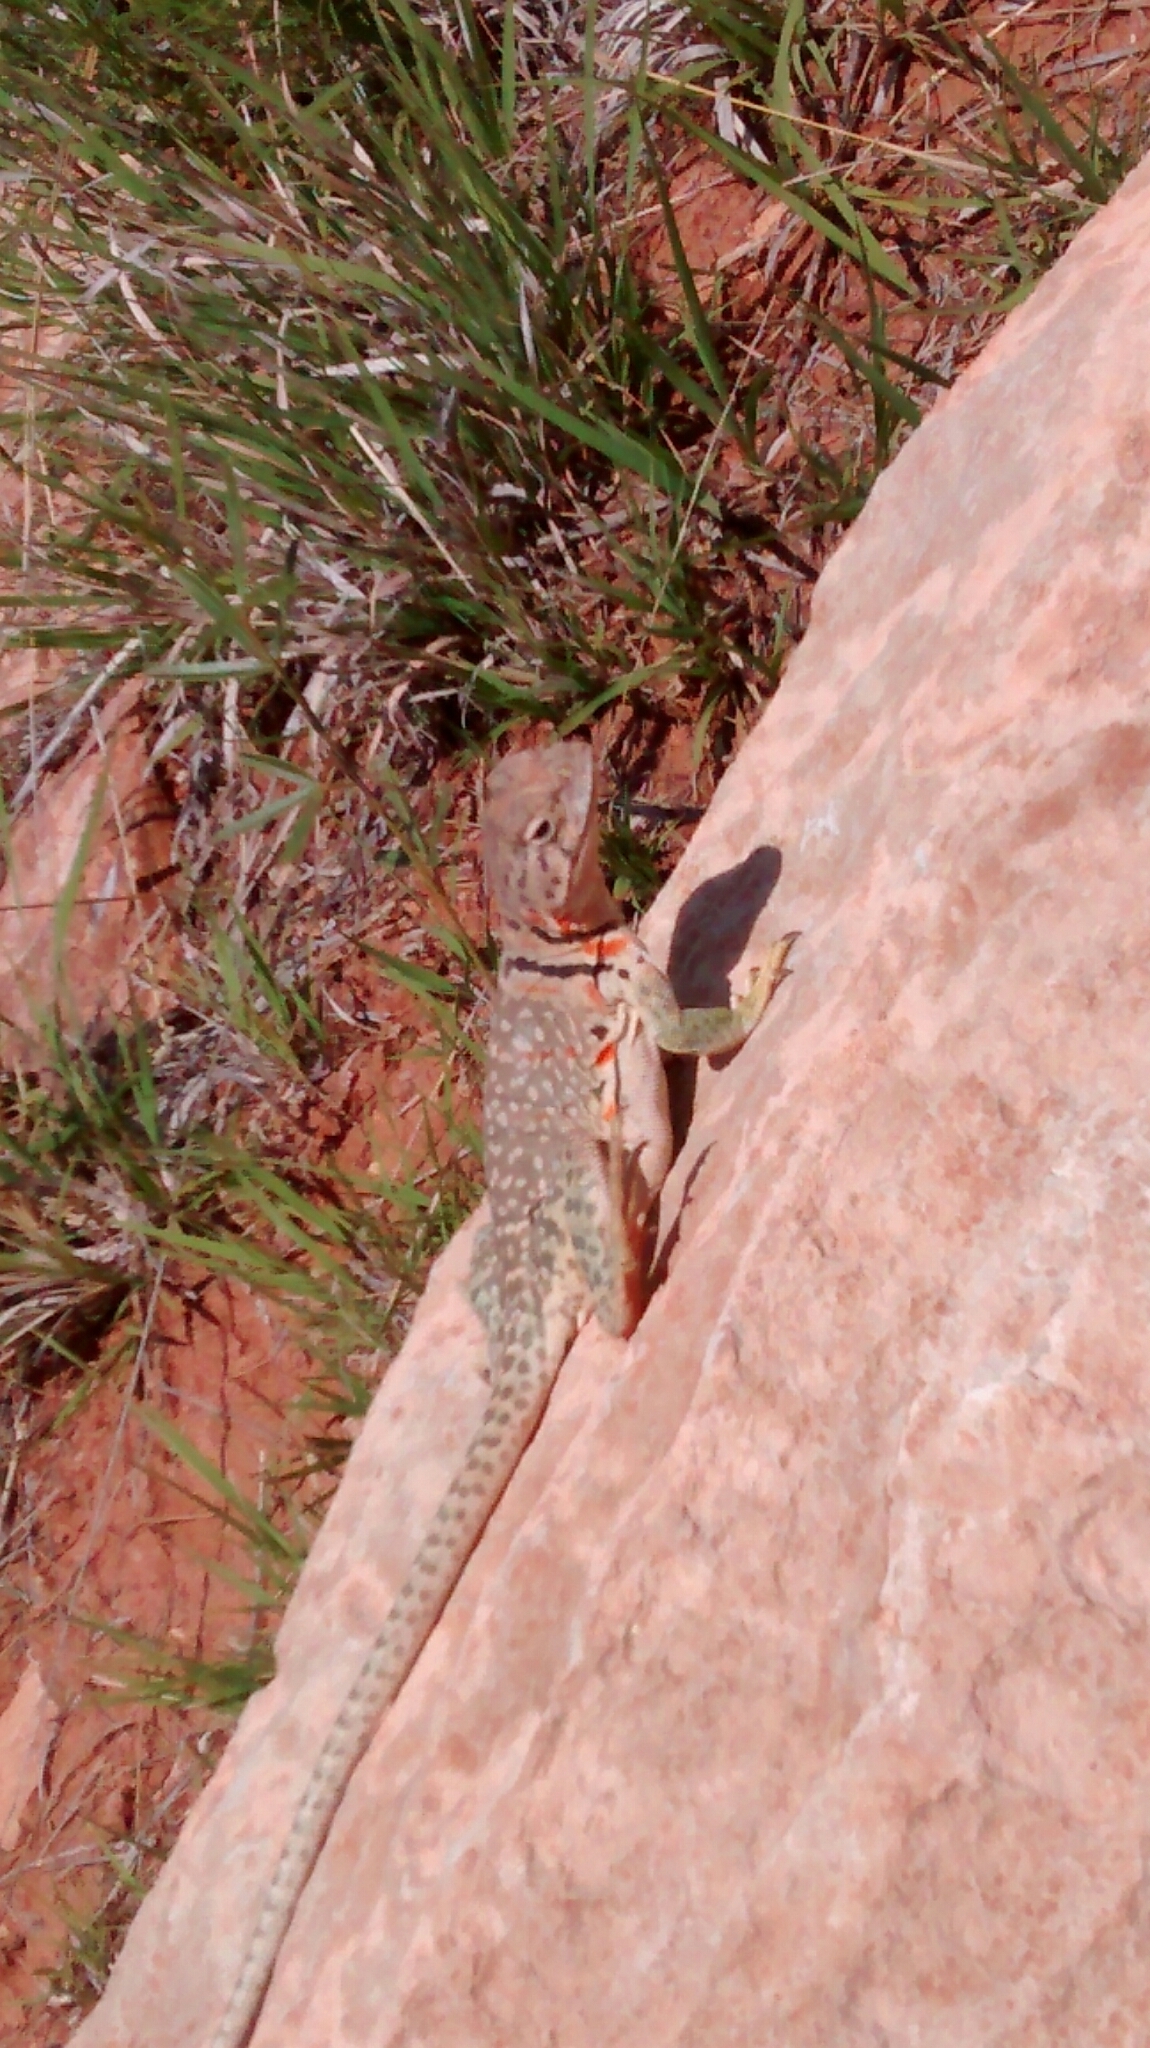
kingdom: Animalia
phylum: Chordata
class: Squamata
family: Crotaphytidae
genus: Crotaphytus
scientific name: Crotaphytus collaris
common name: Collared lizard
